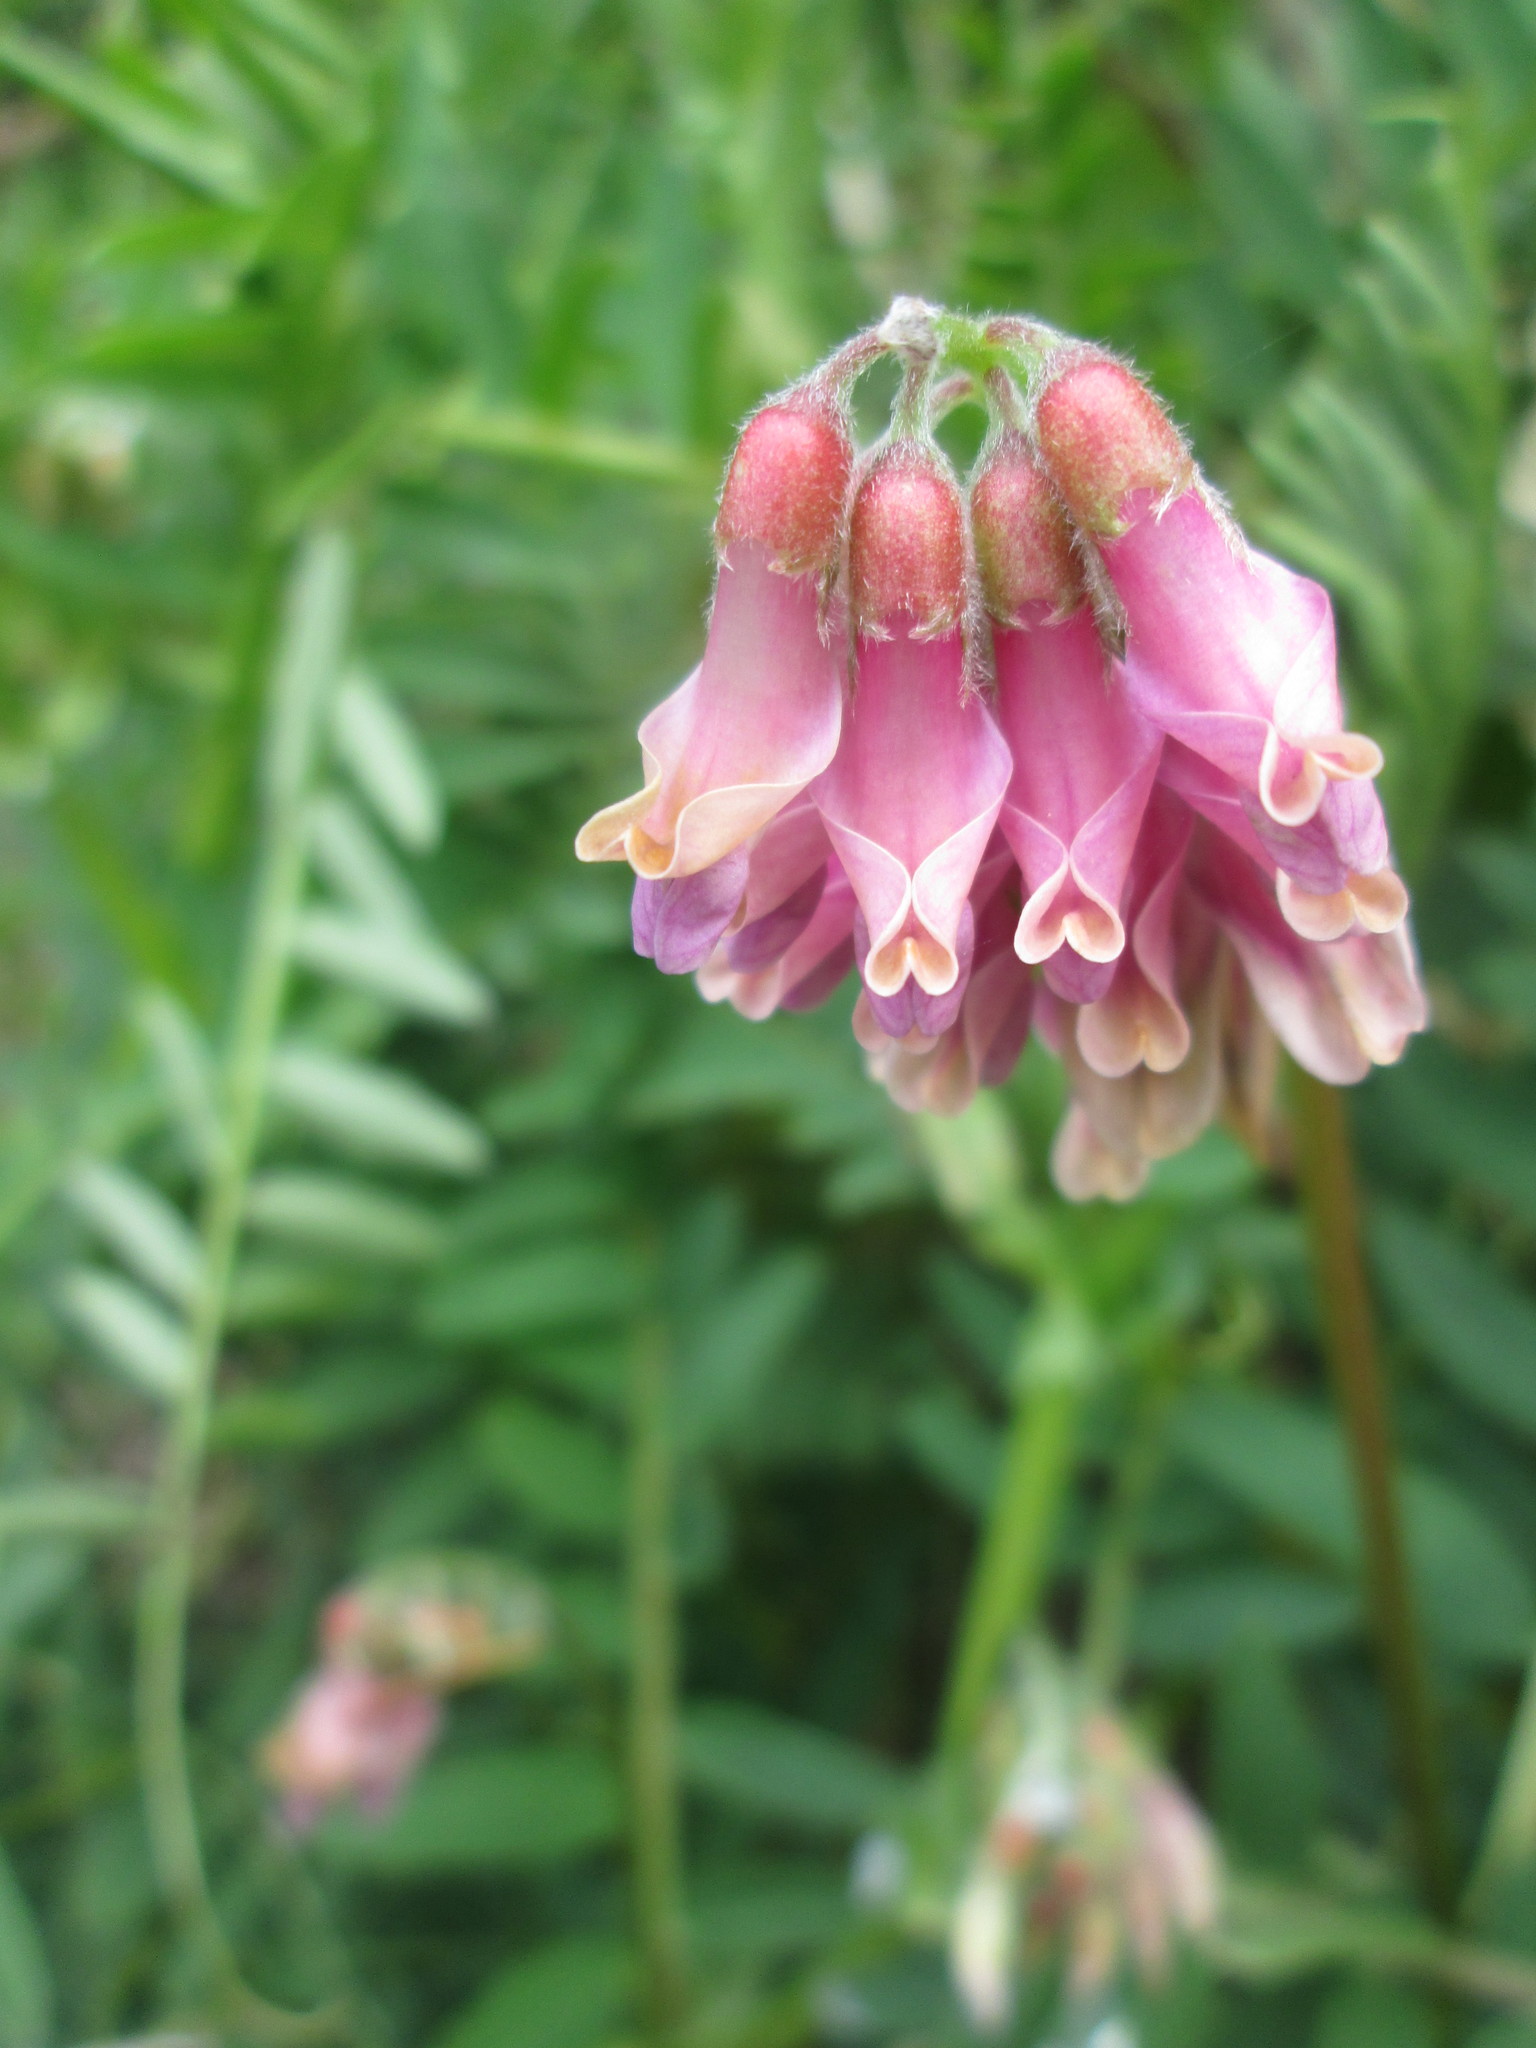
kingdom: Plantae
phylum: Tracheophyta
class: Magnoliopsida
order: Fabales
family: Fabaceae
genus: Vicia
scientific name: Vicia
